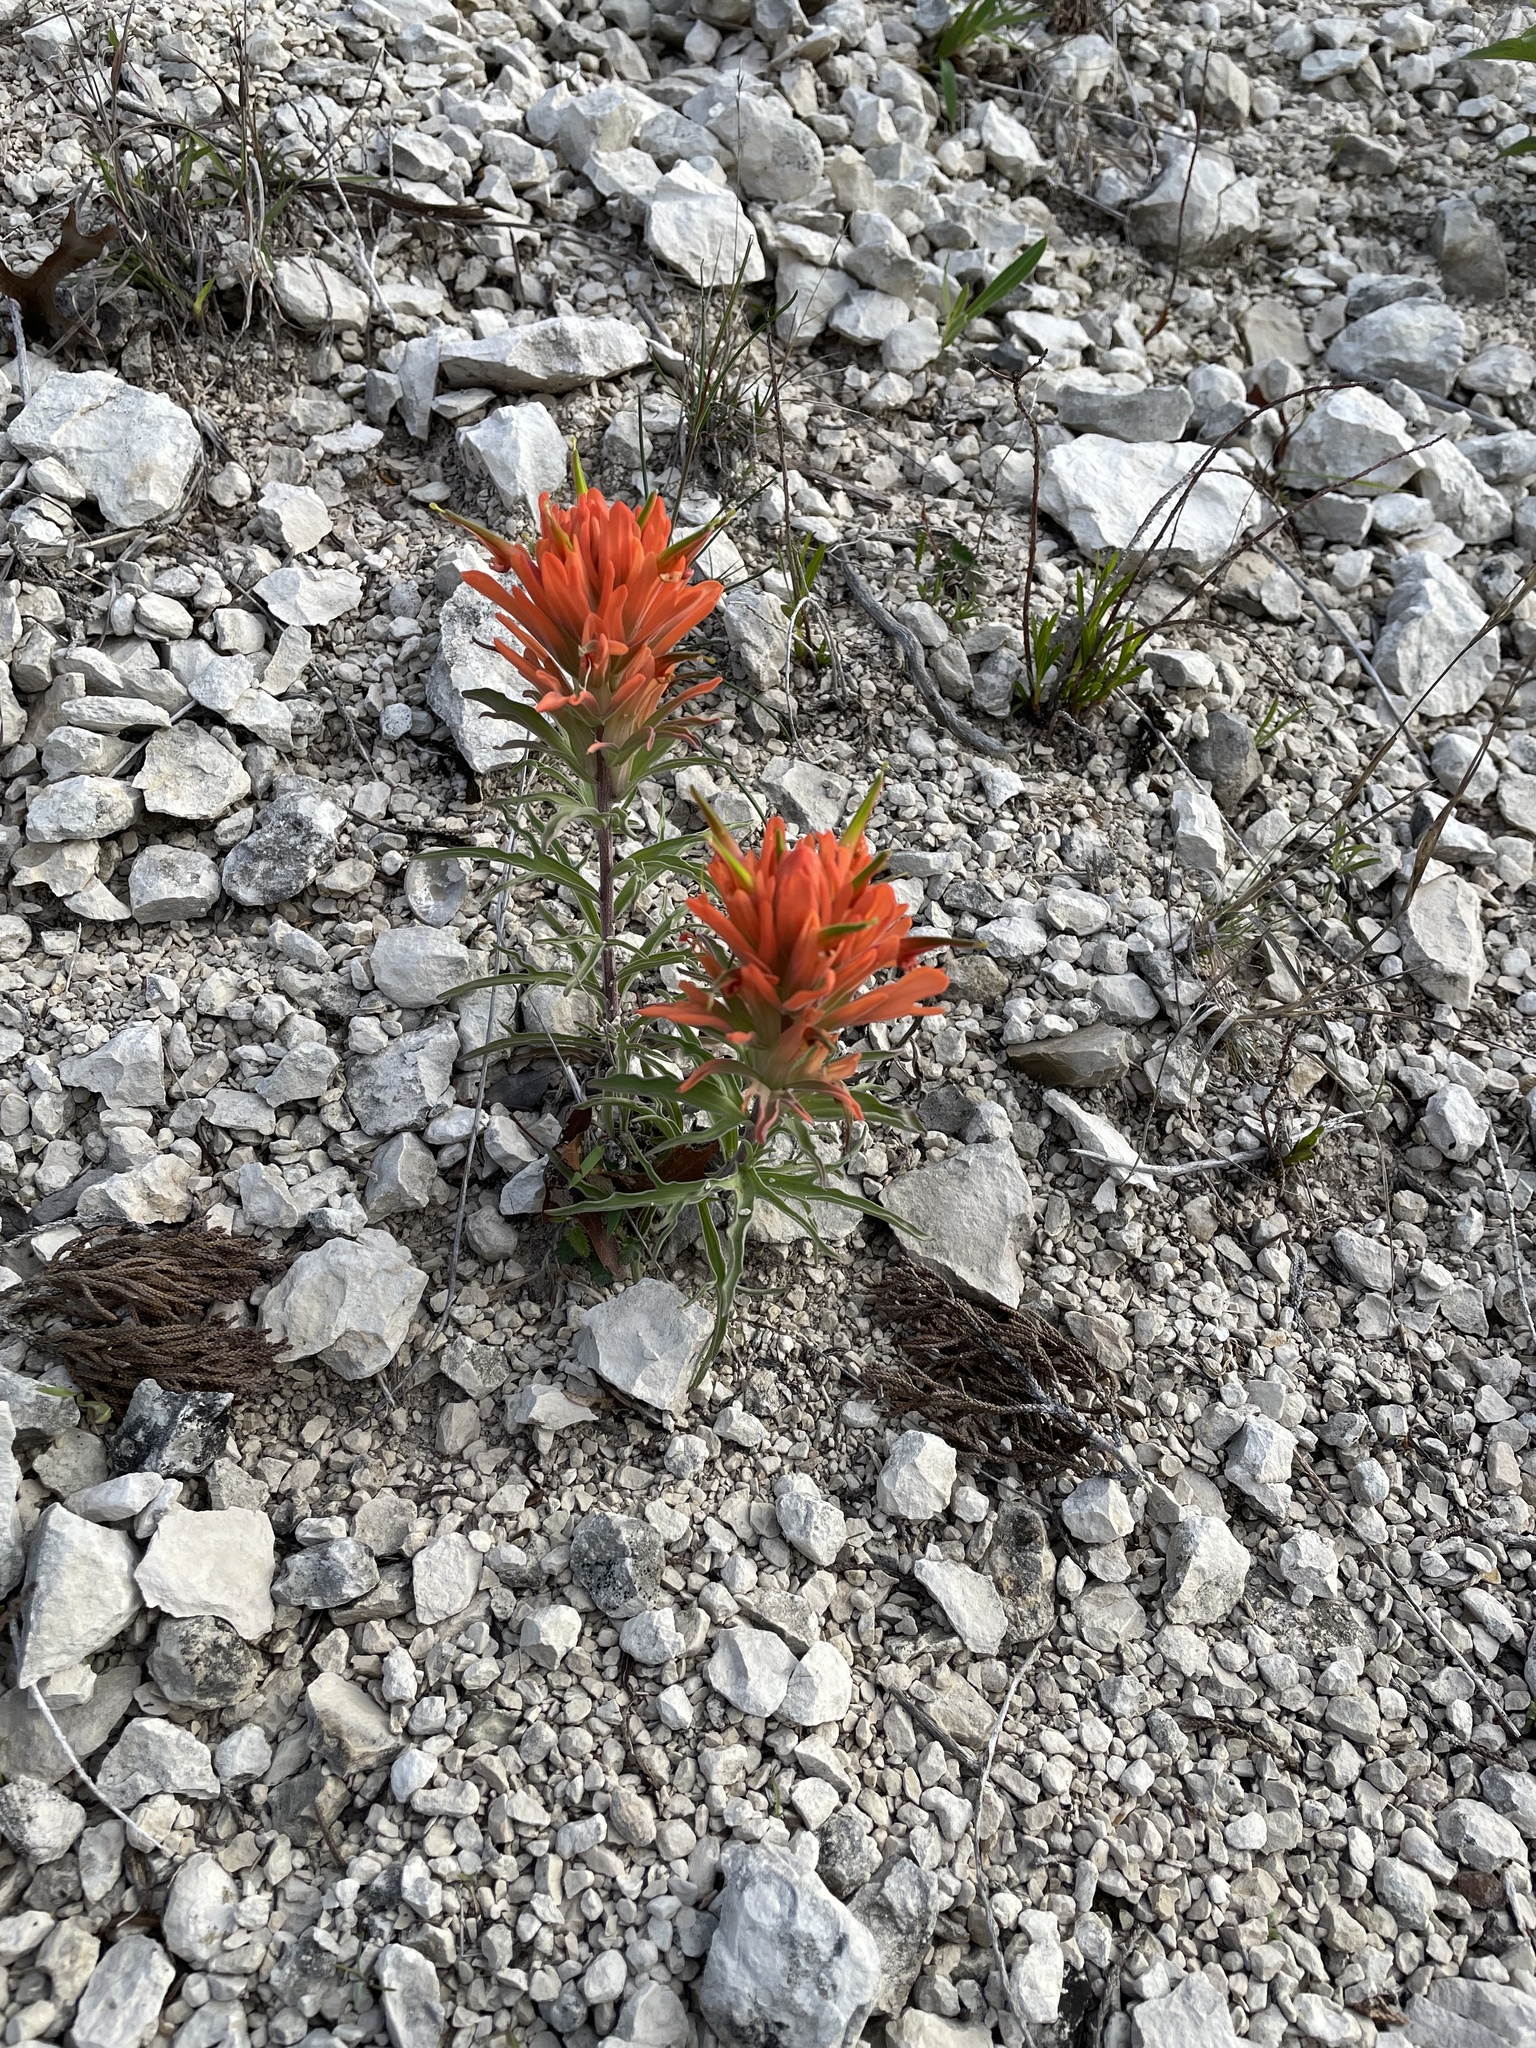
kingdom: Plantae
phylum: Tracheophyta
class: Magnoliopsida
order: Lamiales
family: Orobanchaceae
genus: Castilleja
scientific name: Castilleja lindheimeri
